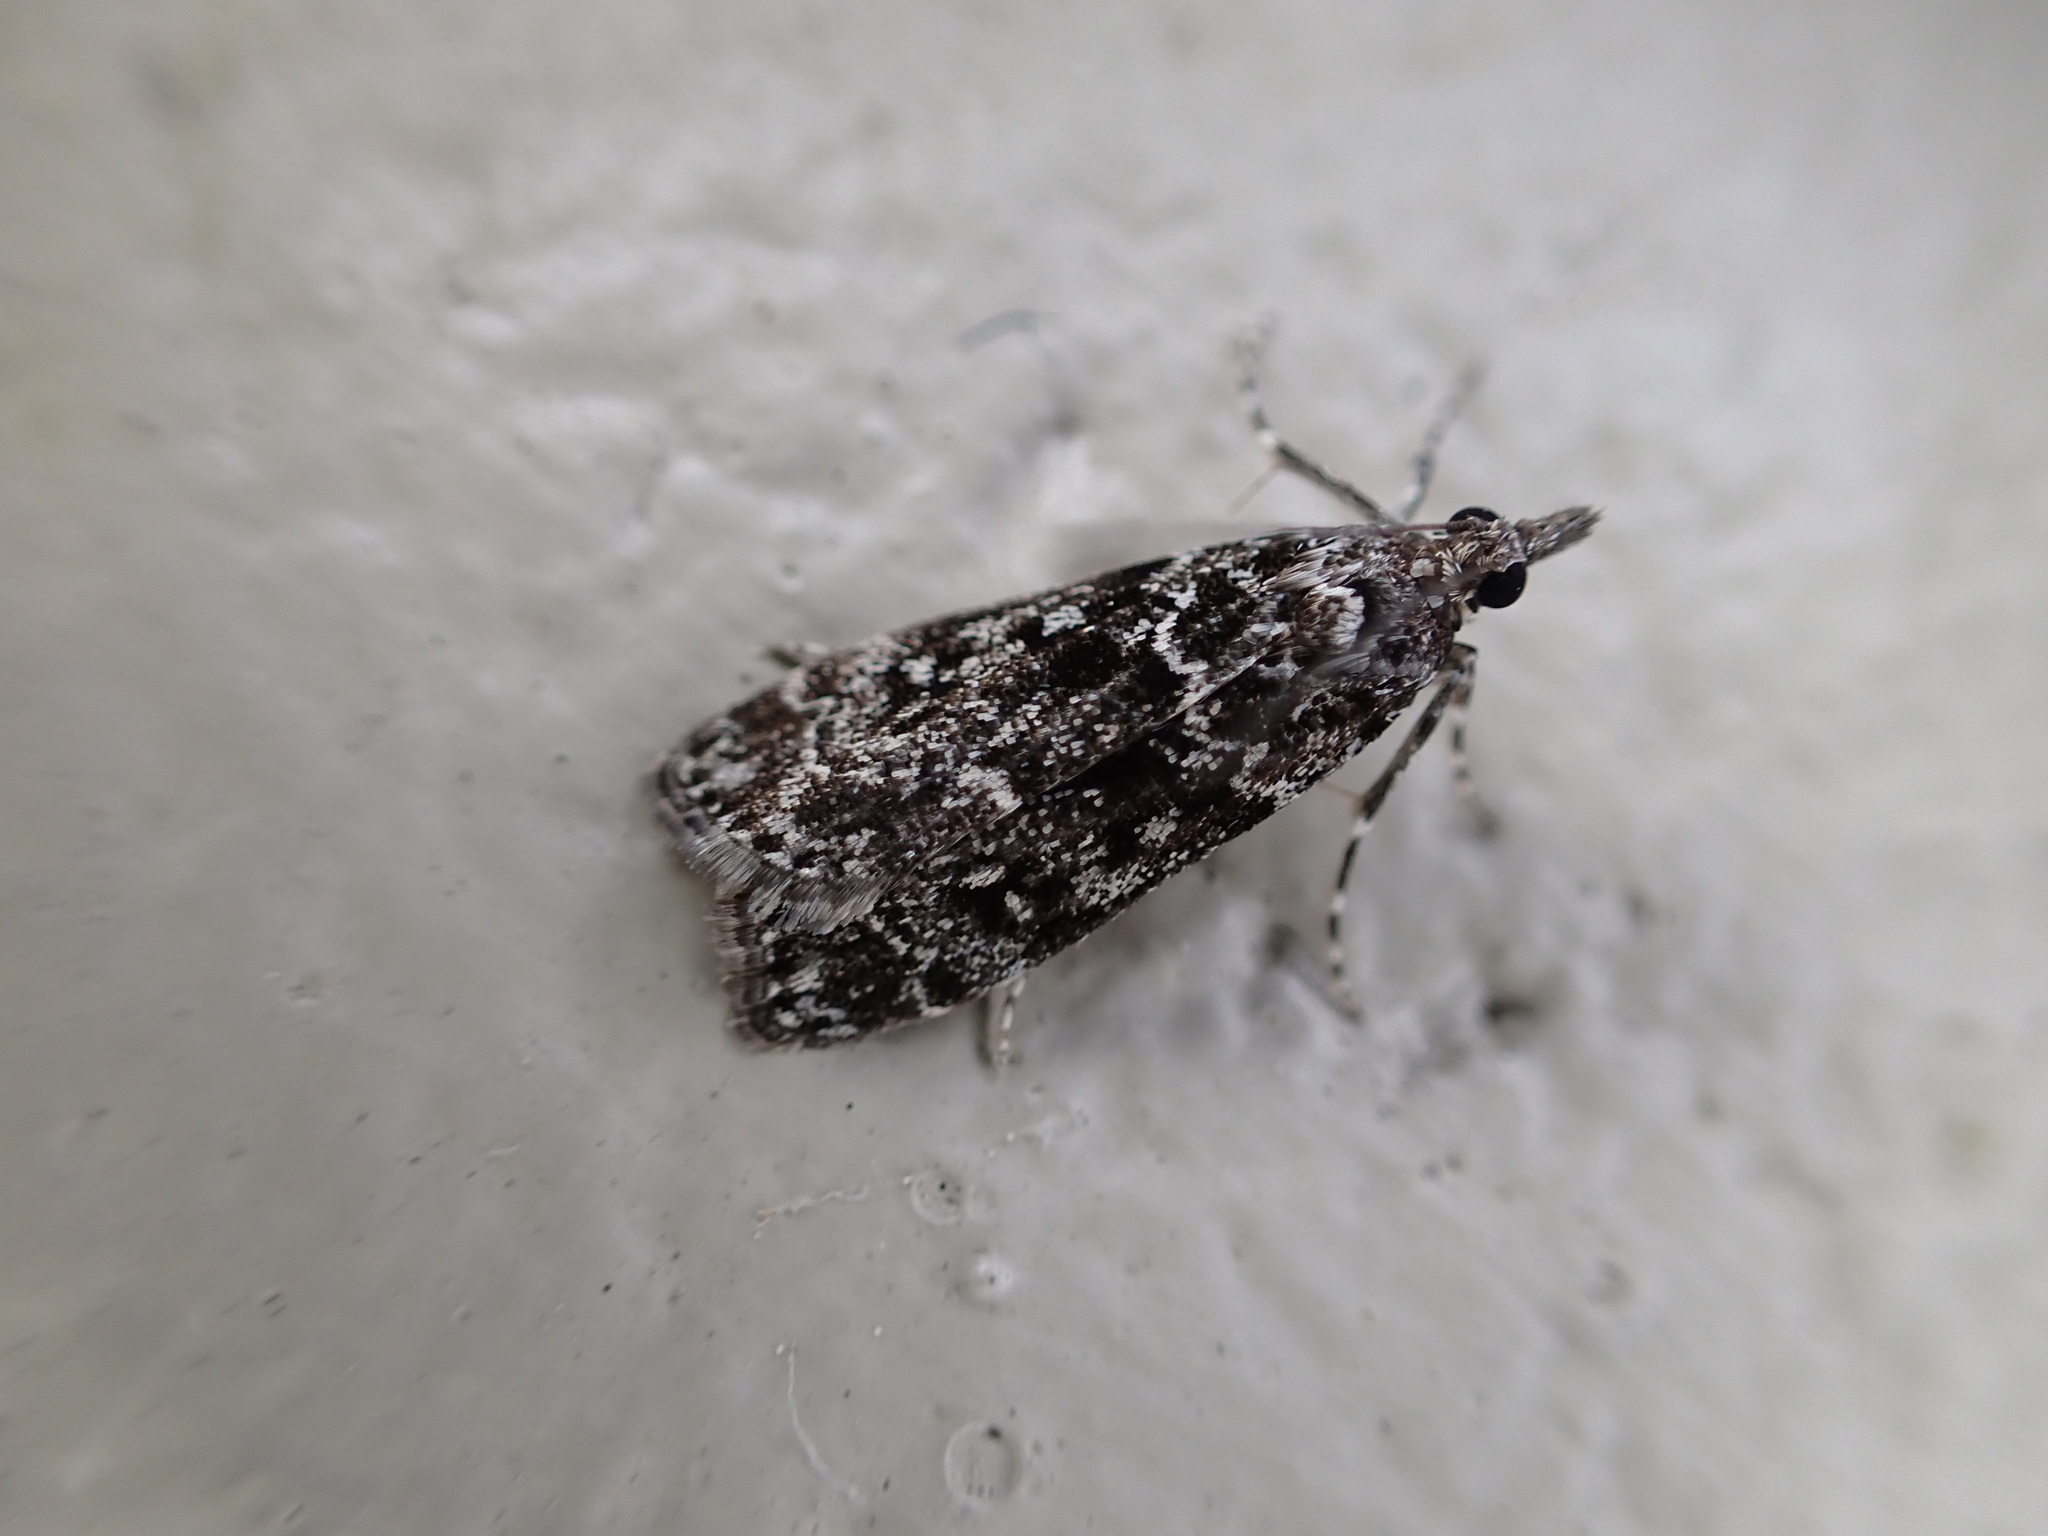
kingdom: Animalia
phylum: Arthropoda
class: Insecta
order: Lepidoptera
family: Crambidae
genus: Eudonia
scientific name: Eudonia philerga
